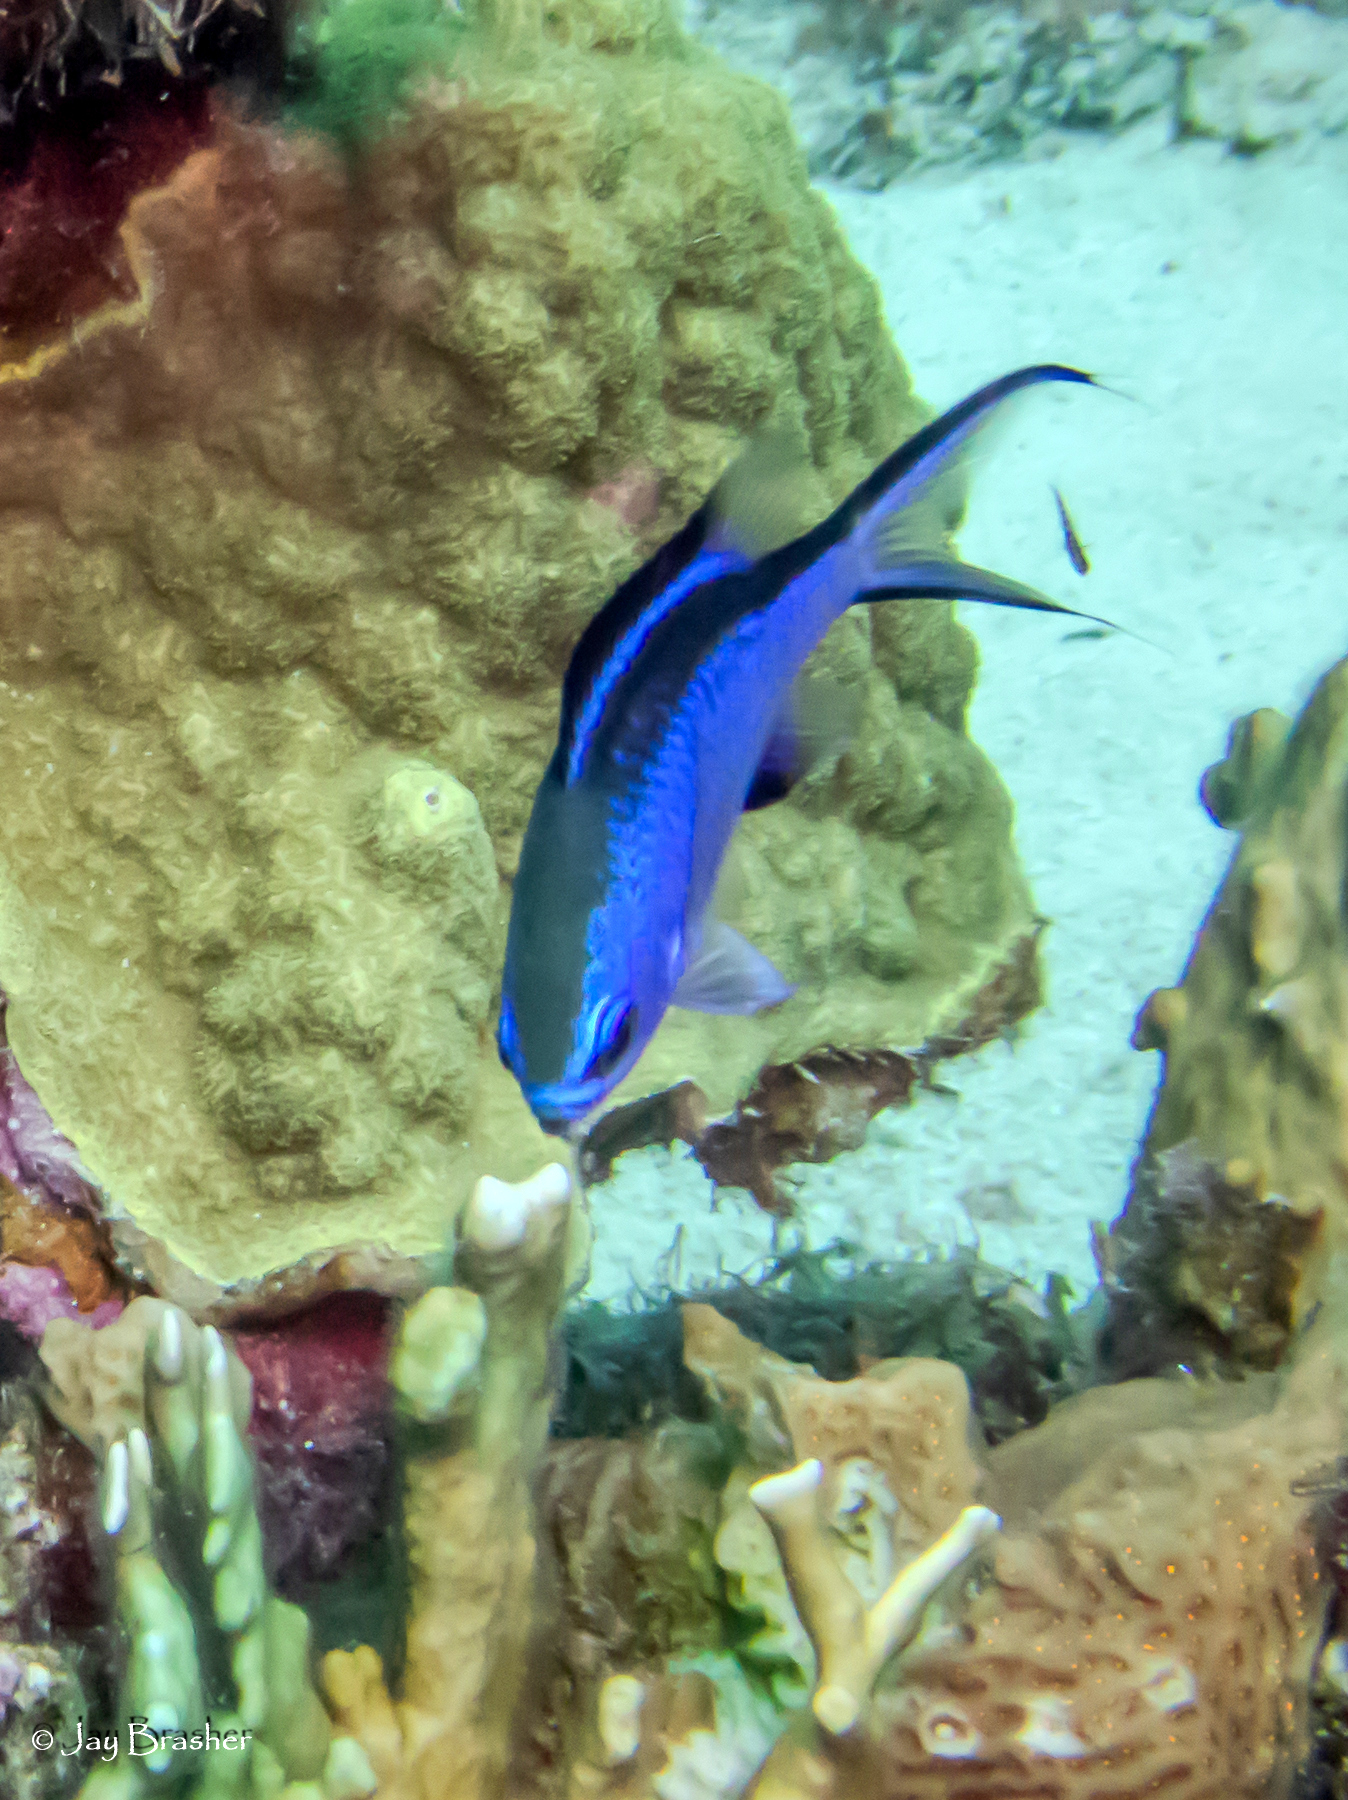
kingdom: Animalia
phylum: Chordata
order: Perciformes
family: Pomacentridae
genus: Chromis
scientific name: Chromis cyanea
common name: Blue chromis
